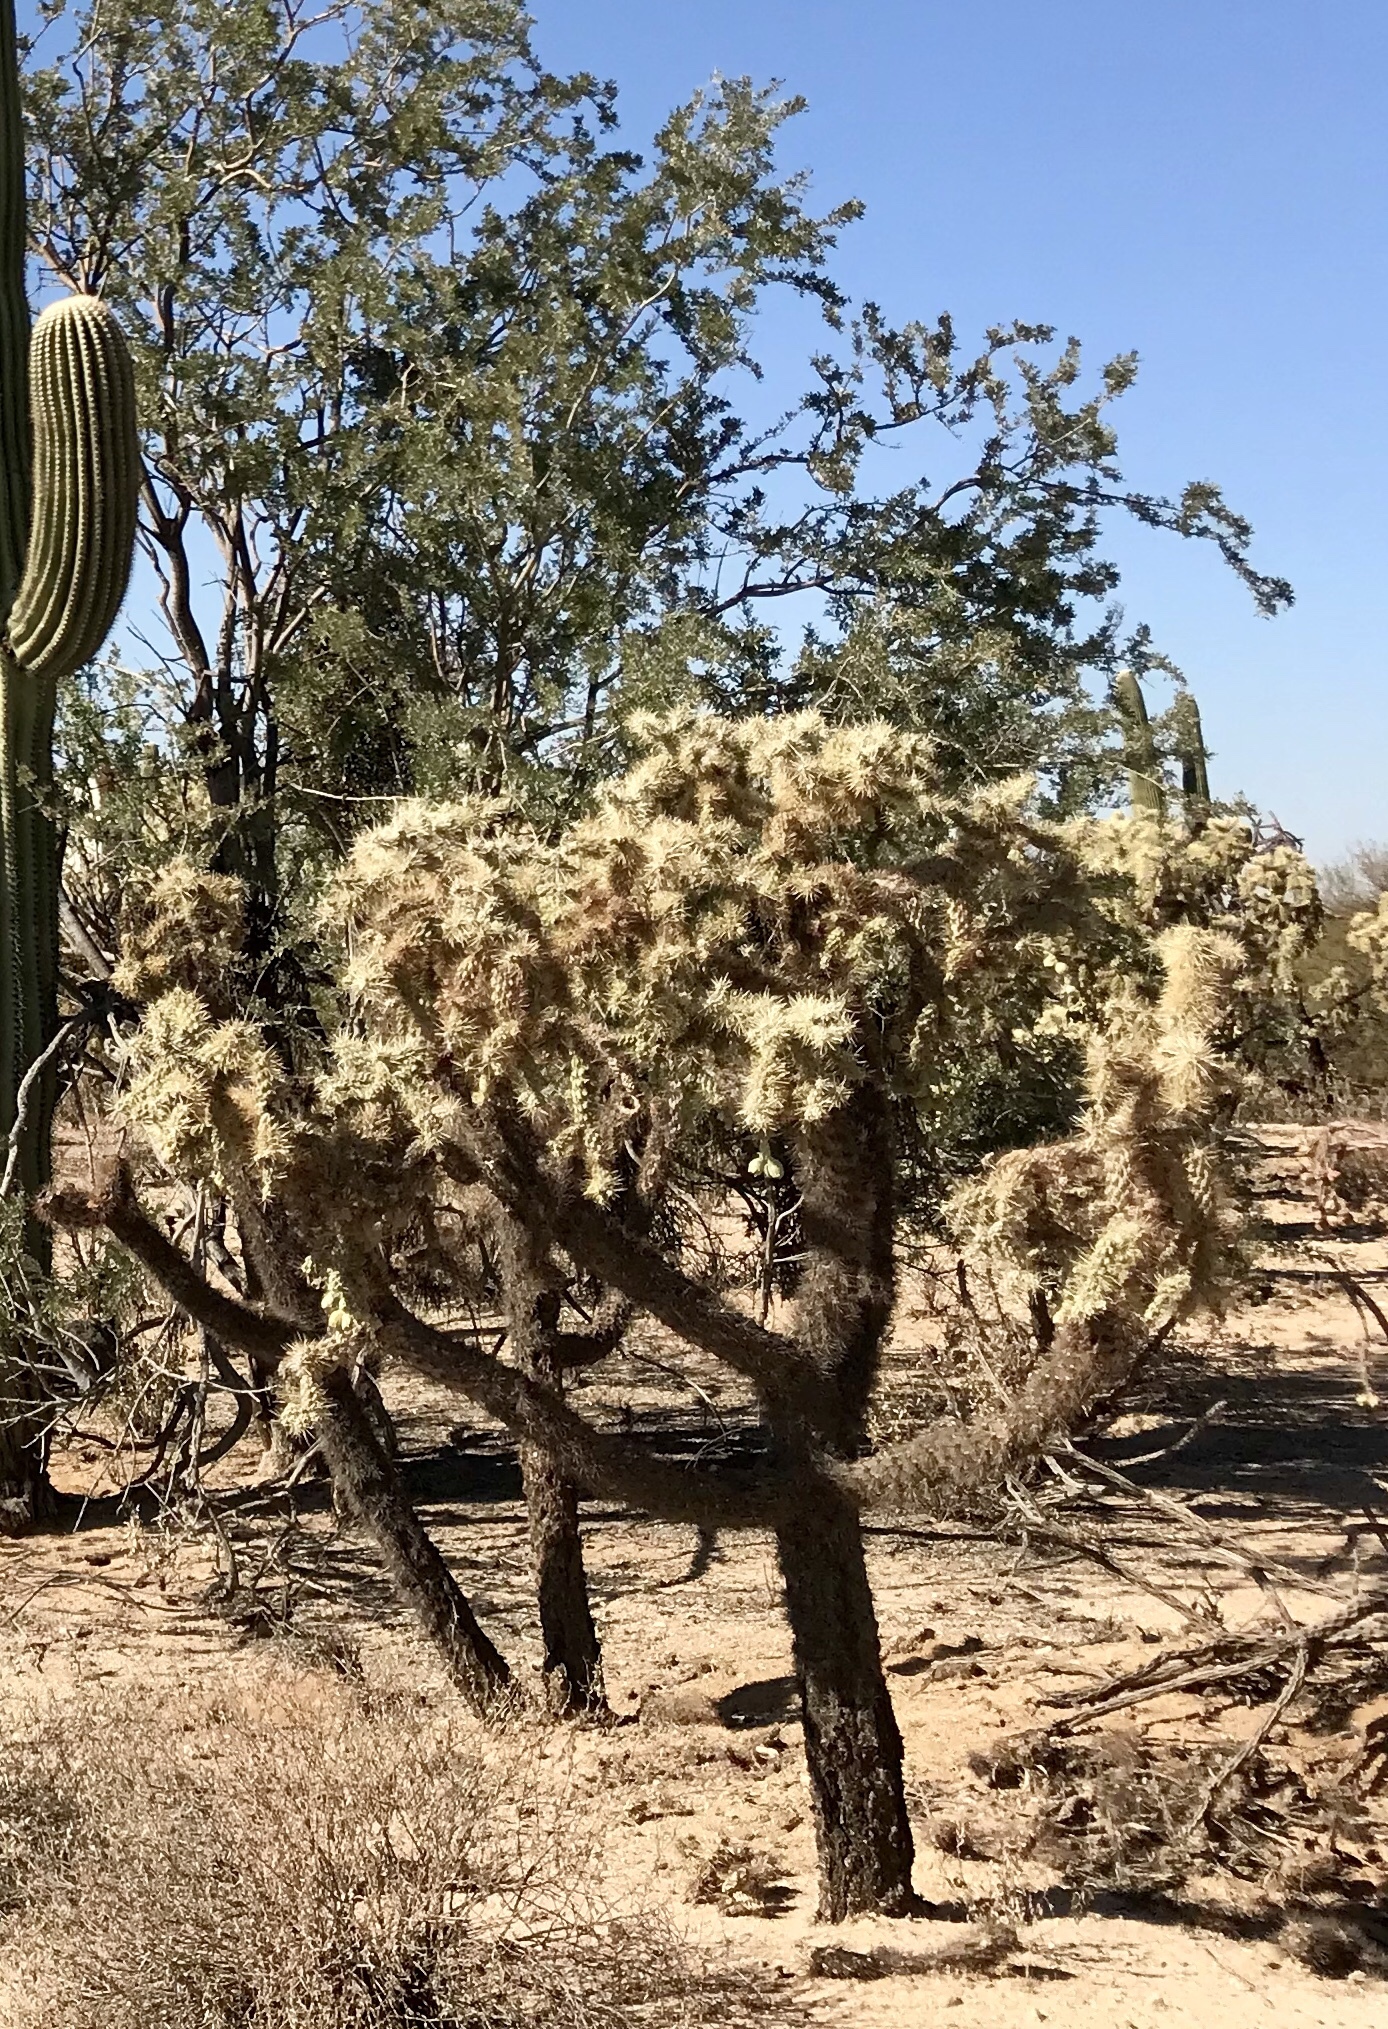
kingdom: Plantae
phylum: Tracheophyta
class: Magnoliopsida
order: Caryophyllales
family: Cactaceae
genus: Cylindropuntia
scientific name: Cylindropuntia fulgida
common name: Jumping cholla
